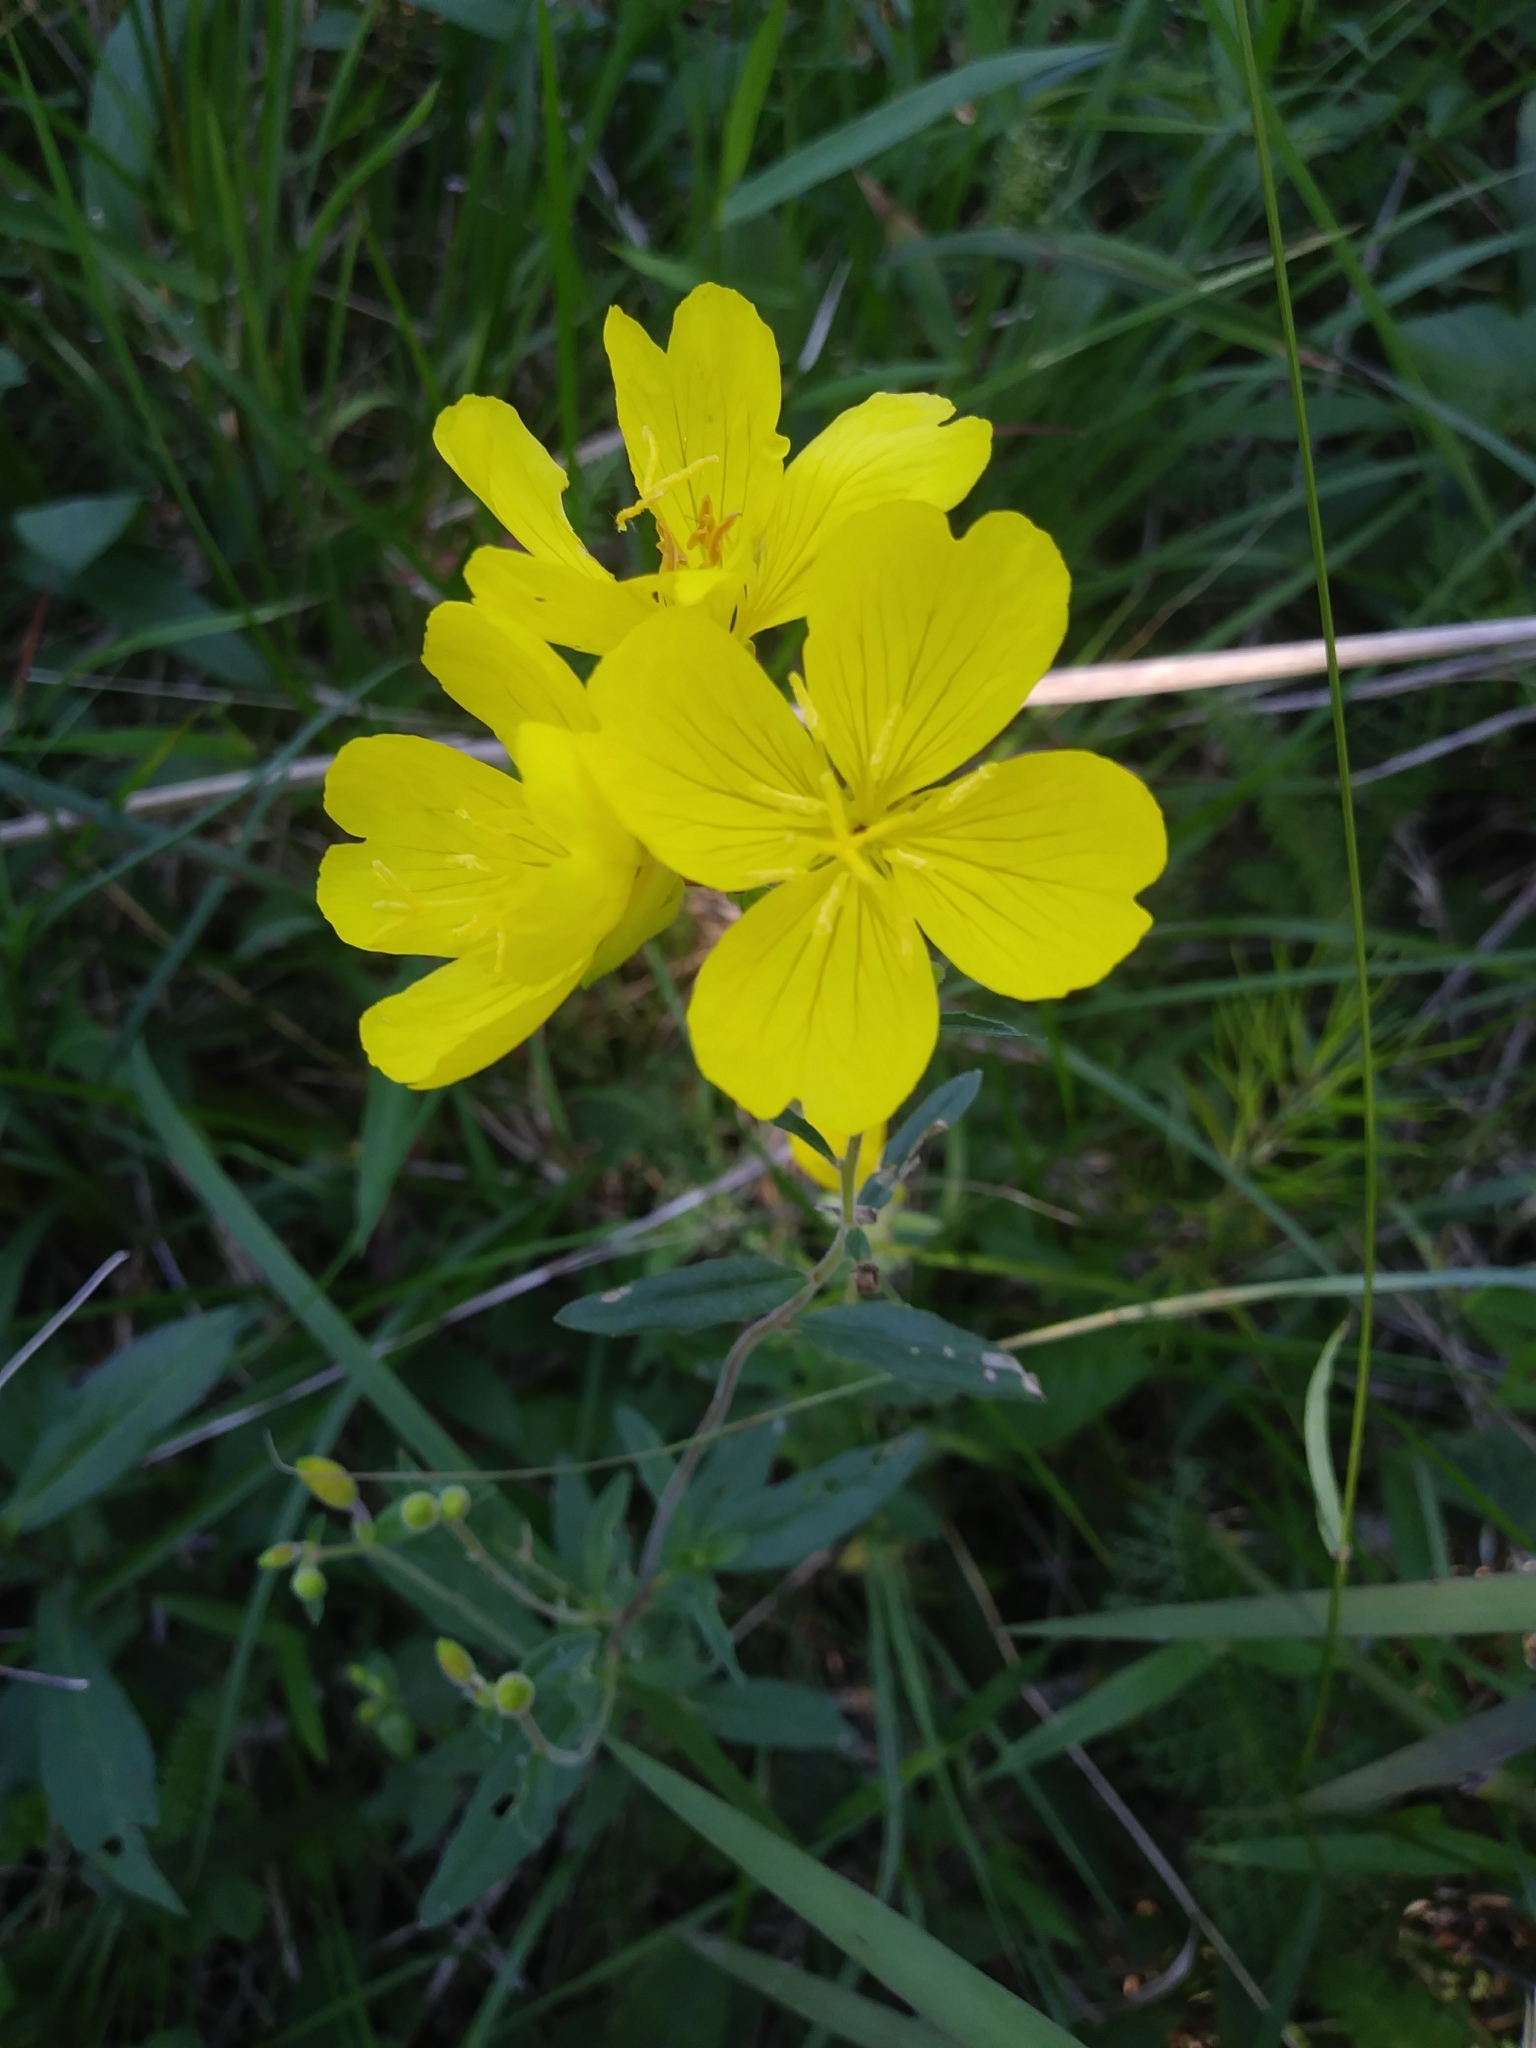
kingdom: Plantae
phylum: Tracheophyta
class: Magnoliopsida
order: Myrtales
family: Onagraceae
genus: Oenothera
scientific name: Oenothera fruticosa
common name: Southern sundrops
